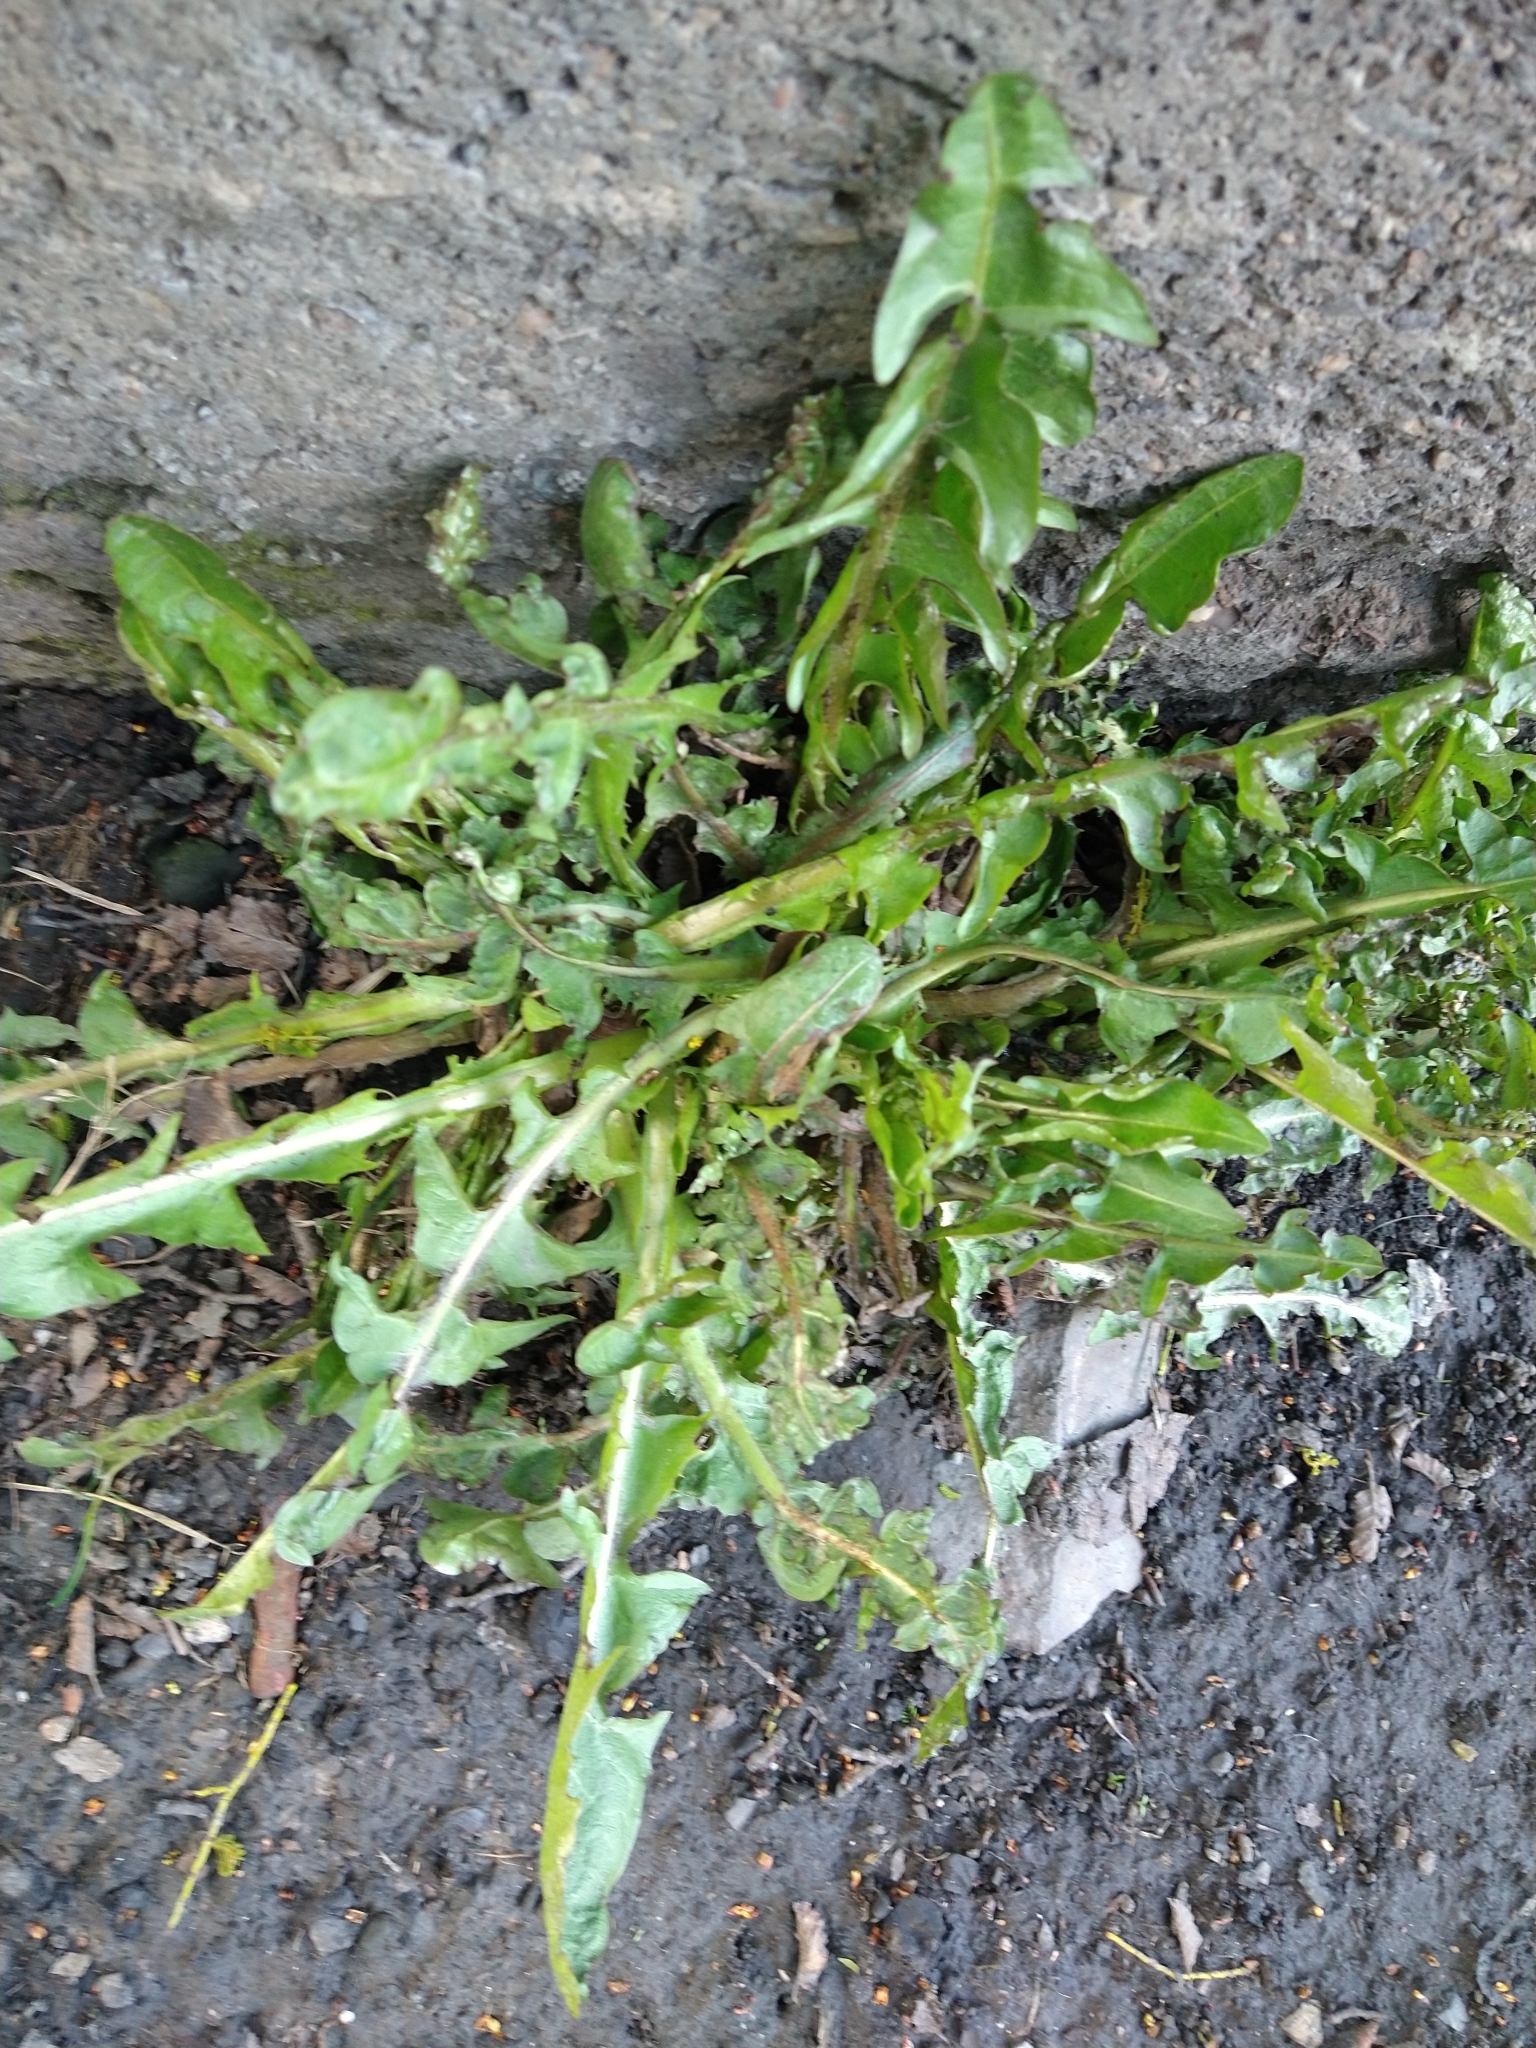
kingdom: Plantae
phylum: Tracheophyta
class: Magnoliopsida
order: Asterales
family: Asteraceae
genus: Taraxacum
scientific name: Taraxacum officinale
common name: Common dandelion
